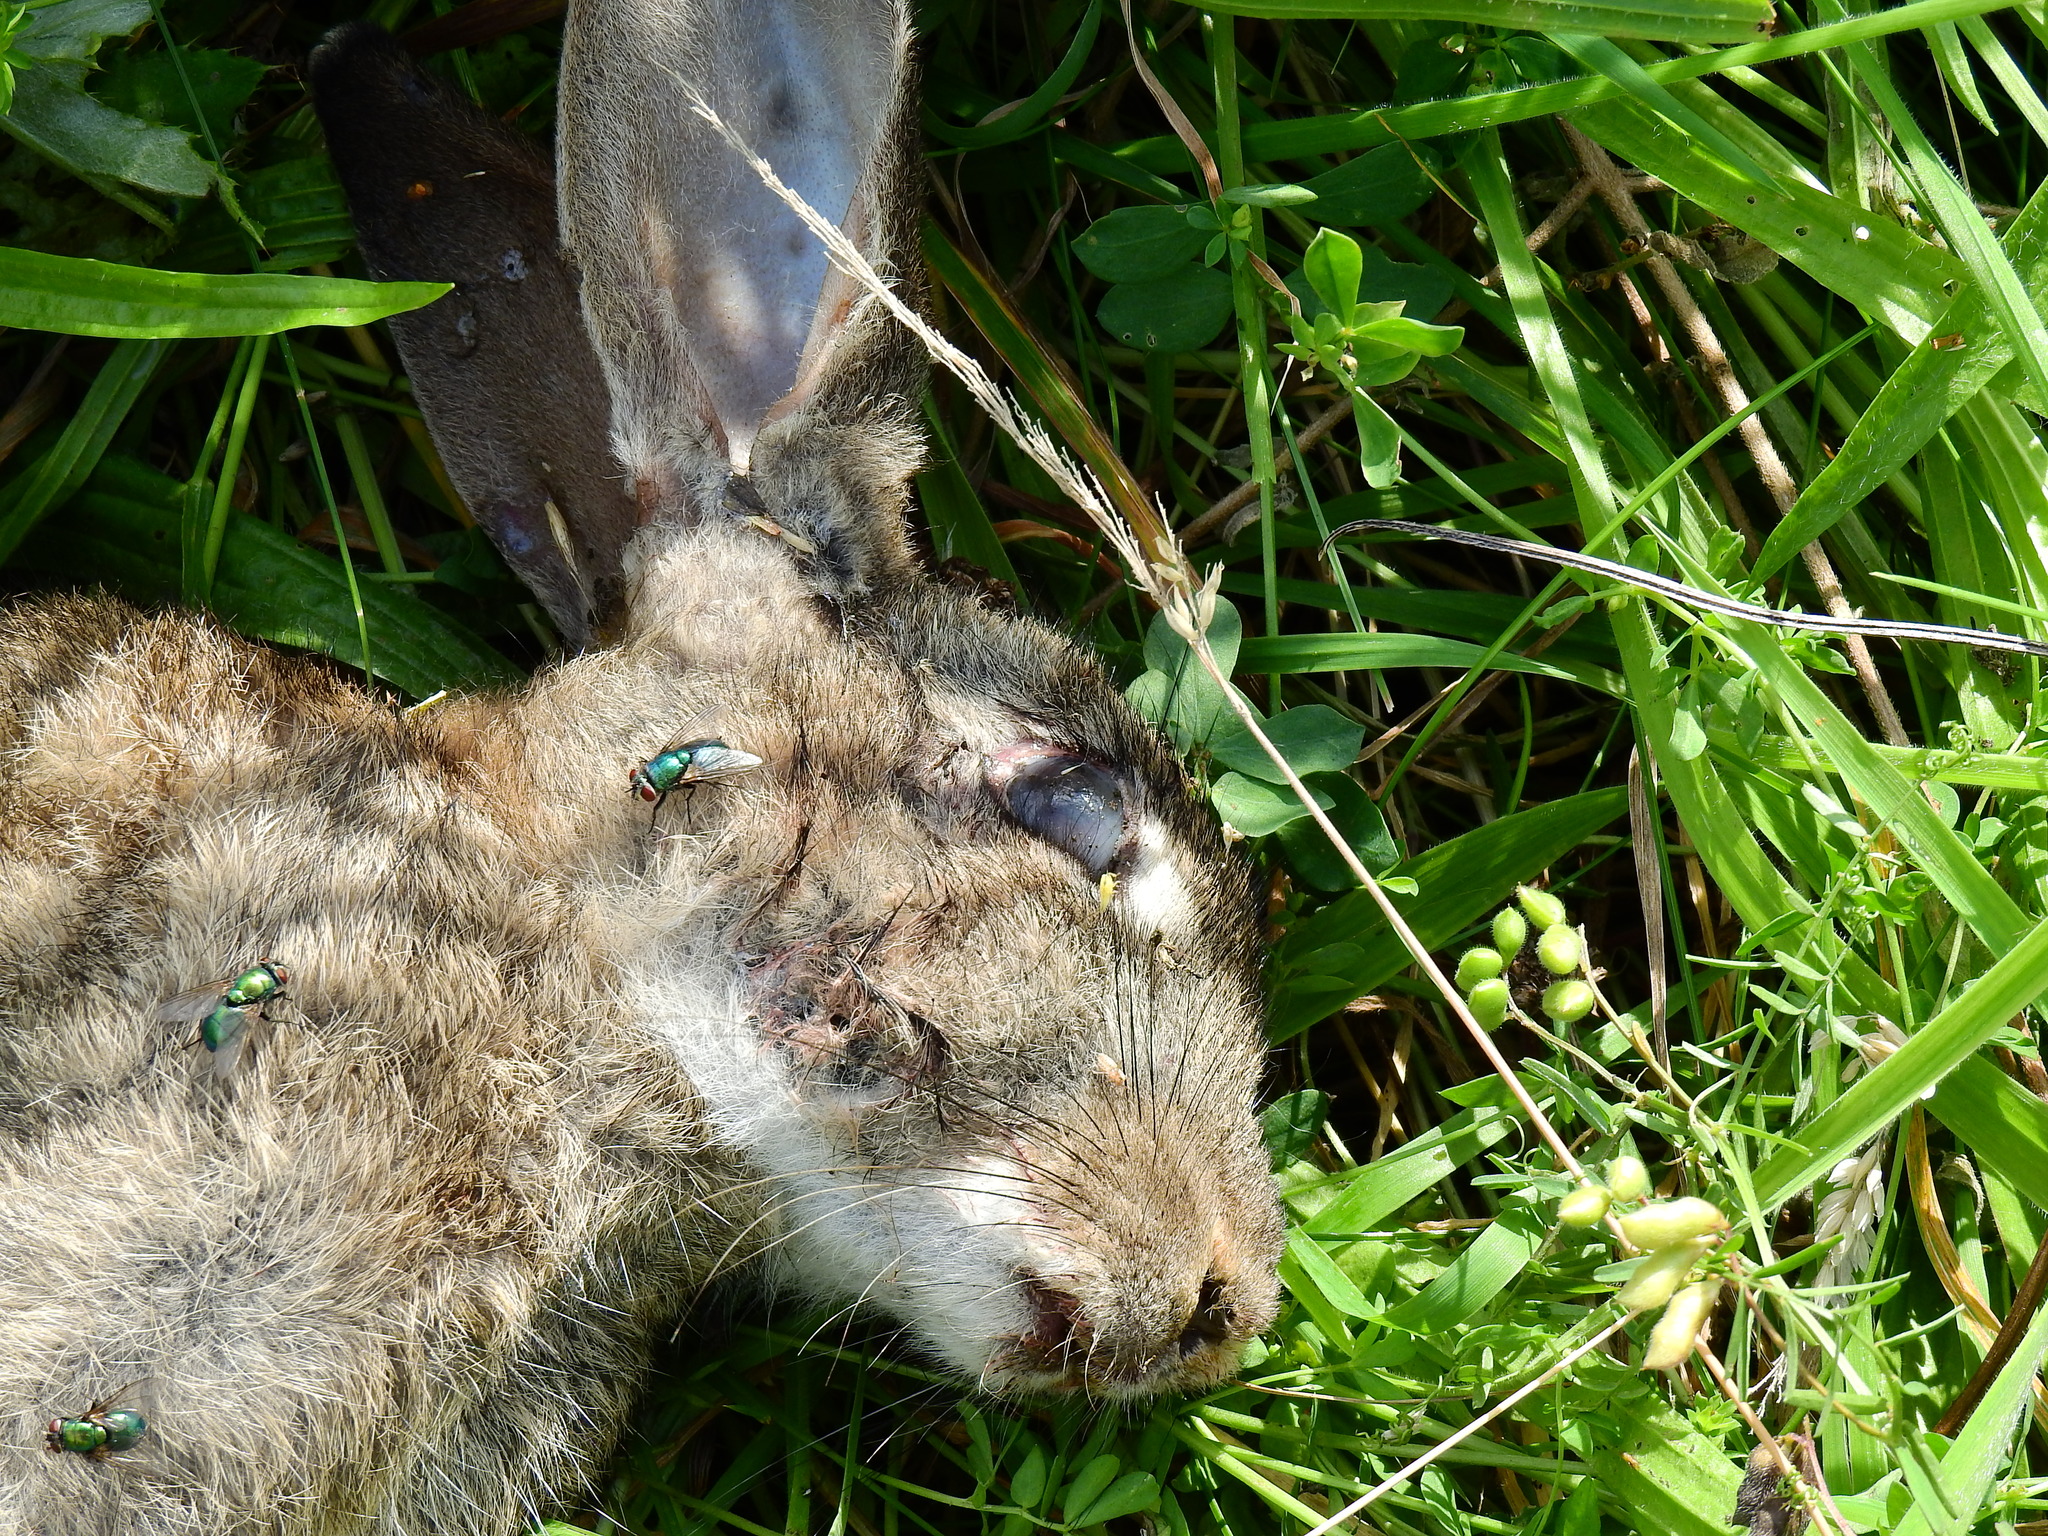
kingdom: Animalia
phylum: Chordata
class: Mammalia
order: Lagomorpha
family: Leporidae
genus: Oryctolagus
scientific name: Oryctolagus cuniculus
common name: European rabbit
